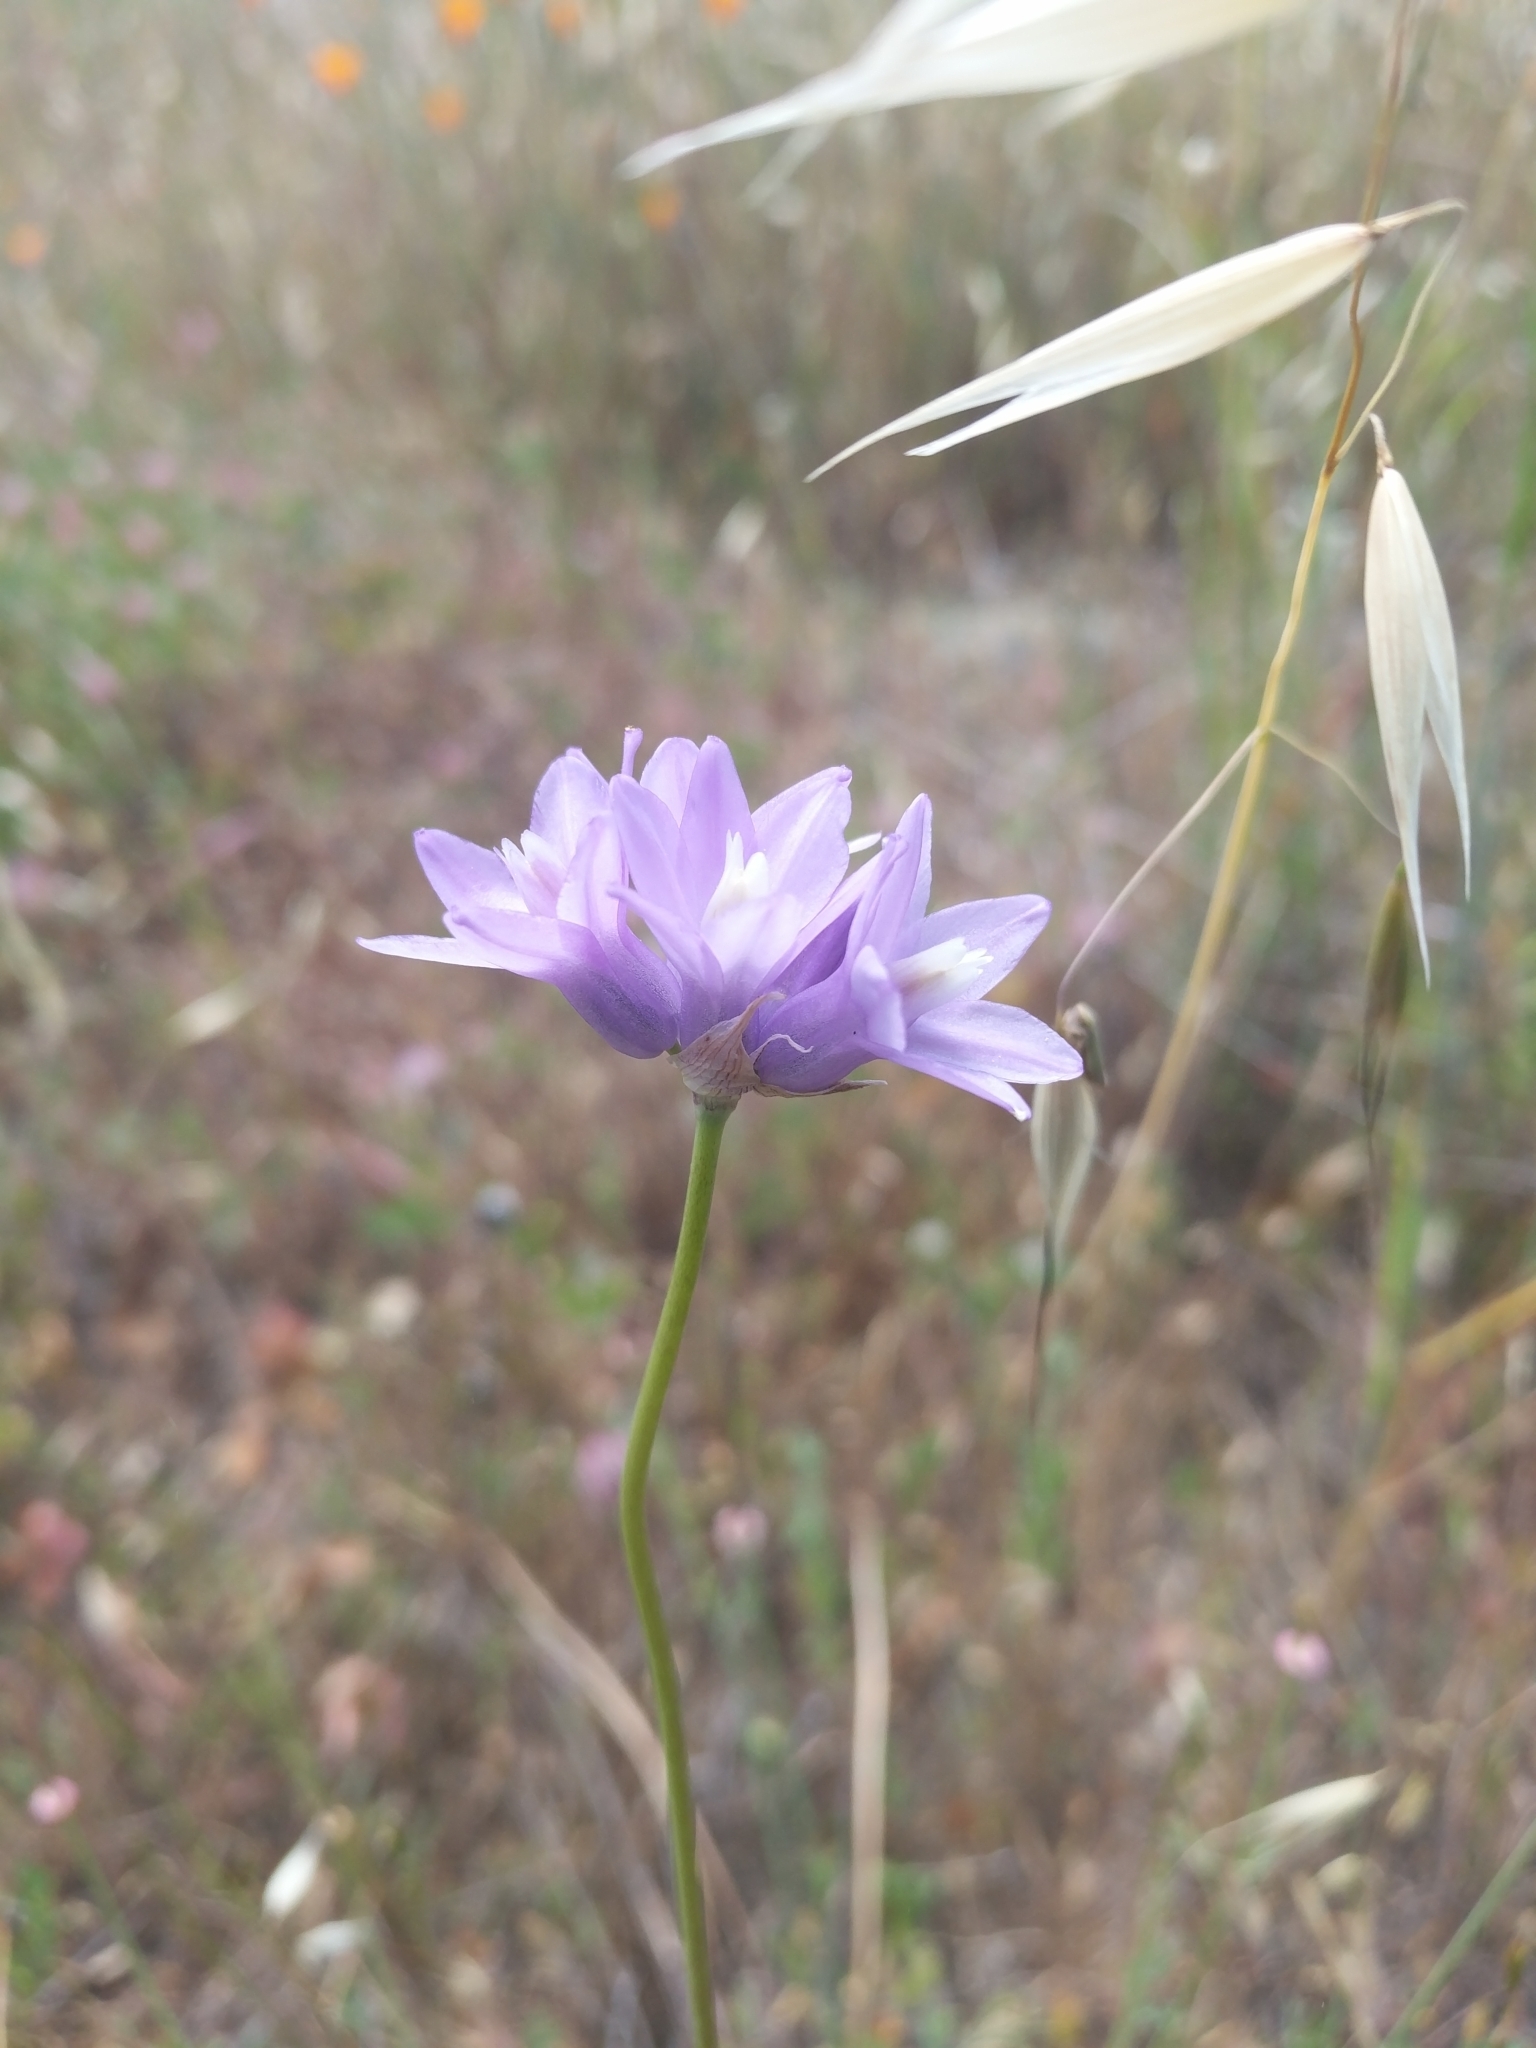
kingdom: Plantae
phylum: Tracheophyta
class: Liliopsida
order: Asparagales
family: Asparagaceae
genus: Dipterostemon
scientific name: Dipterostemon capitatus
